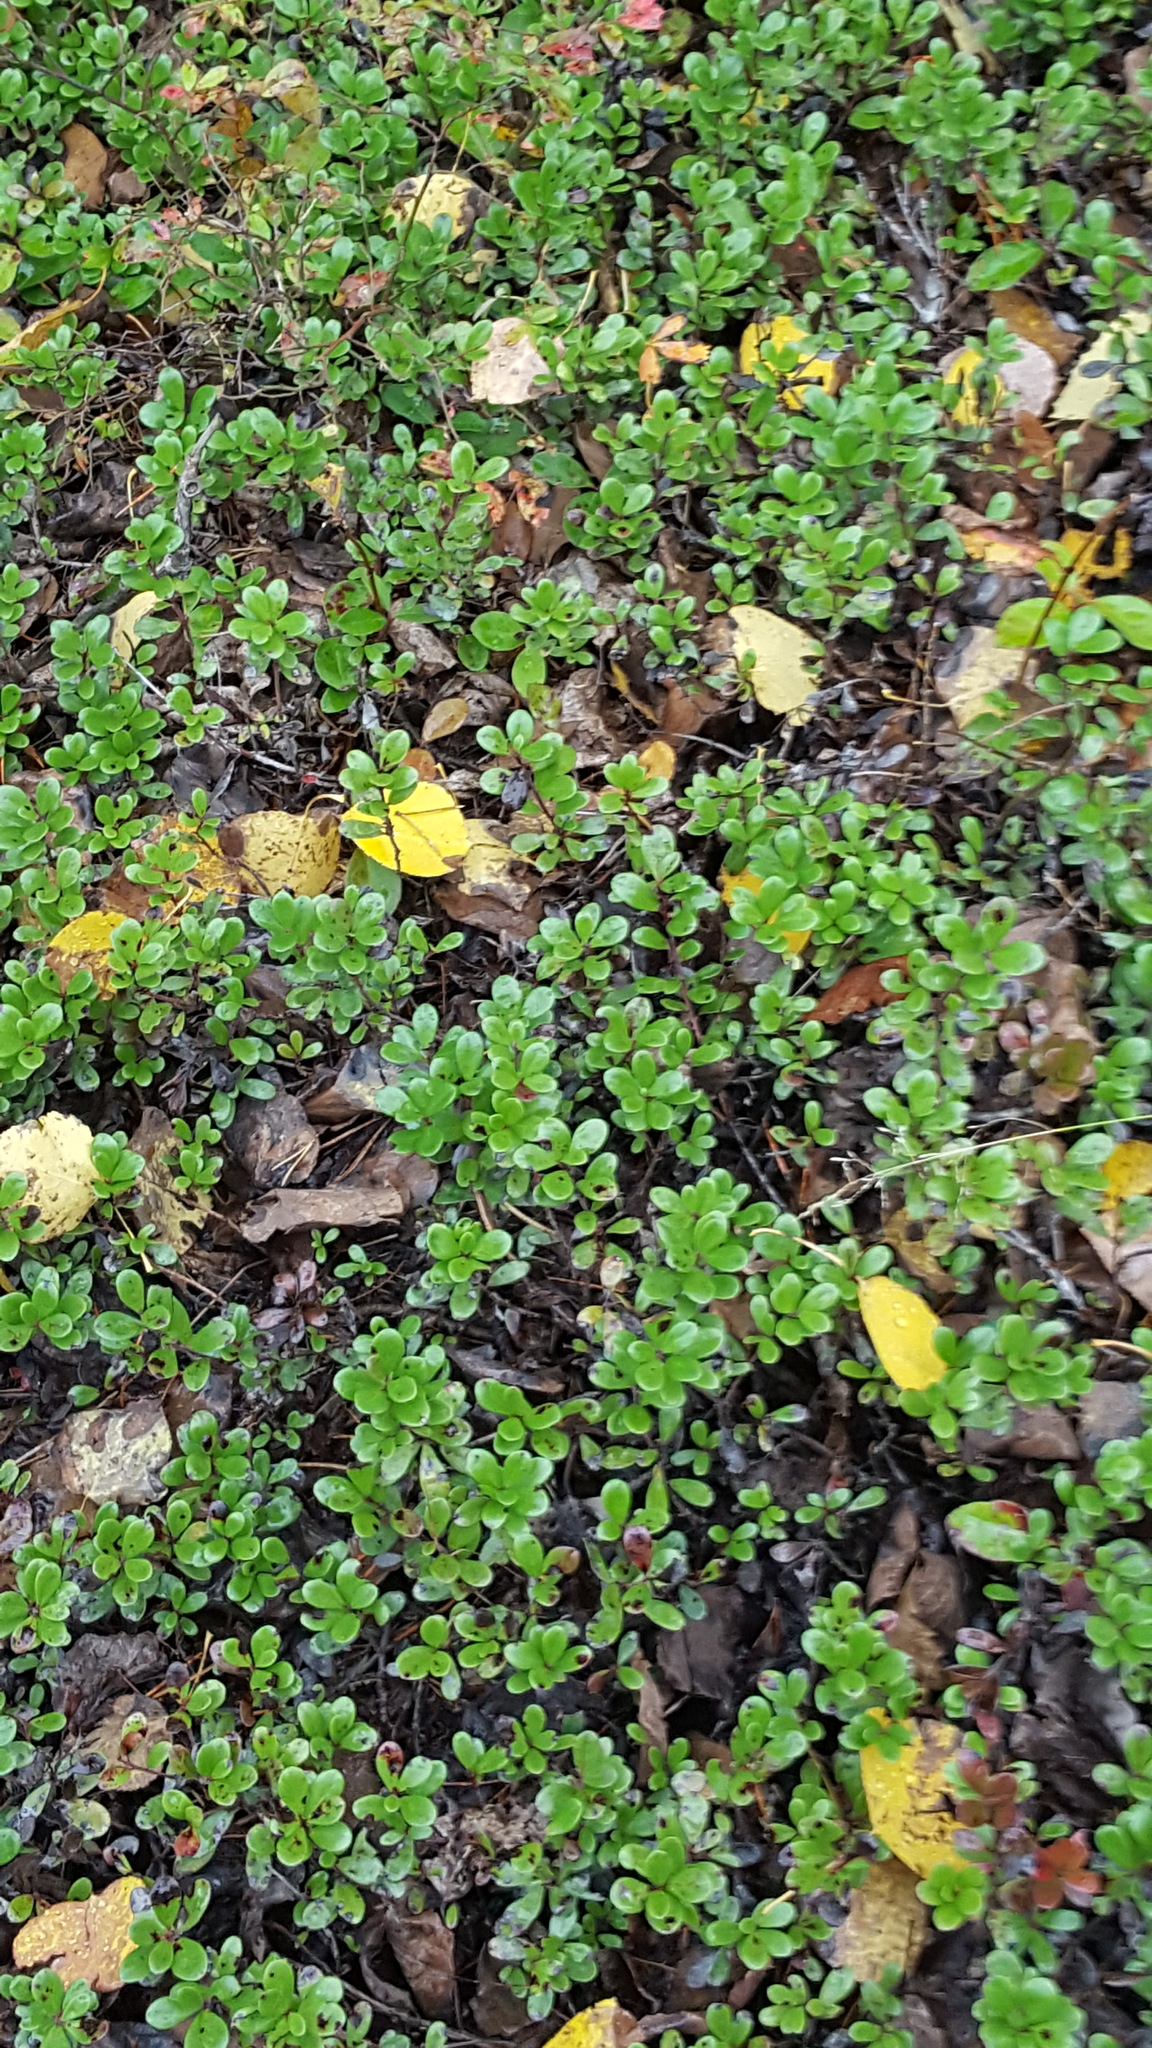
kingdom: Plantae
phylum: Tracheophyta
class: Magnoliopsida
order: Ericales
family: Ericaceae
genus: Arctostaphylos
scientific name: Arctostaphylos uva-ursi
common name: Bearberry
